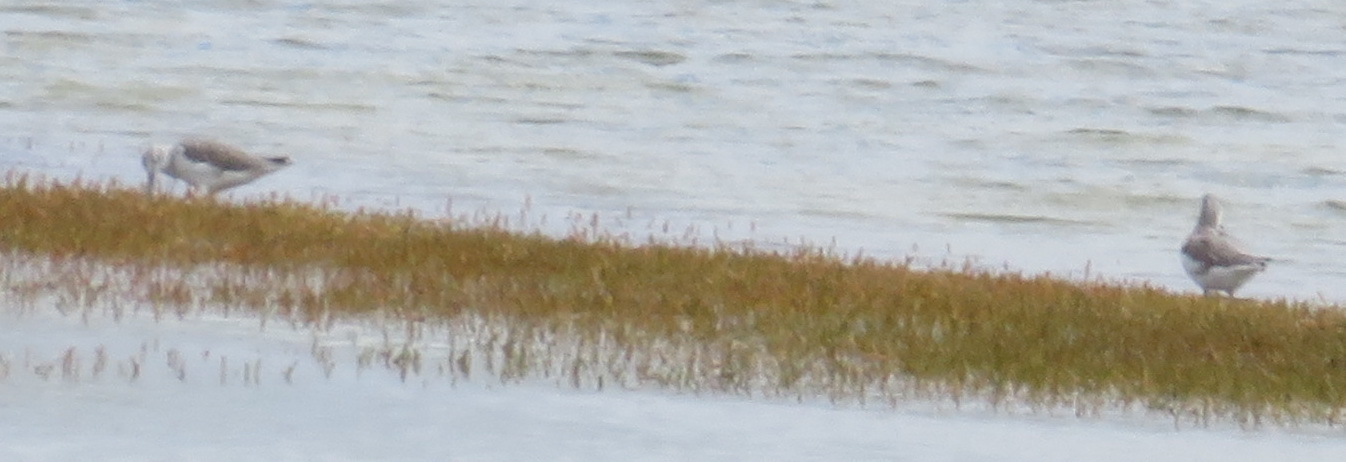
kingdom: Animalia
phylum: Chordata
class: Aves
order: Charadriiformes
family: Scolopacidae
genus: Tringa
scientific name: Tringa nebularia
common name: Common greenshank
